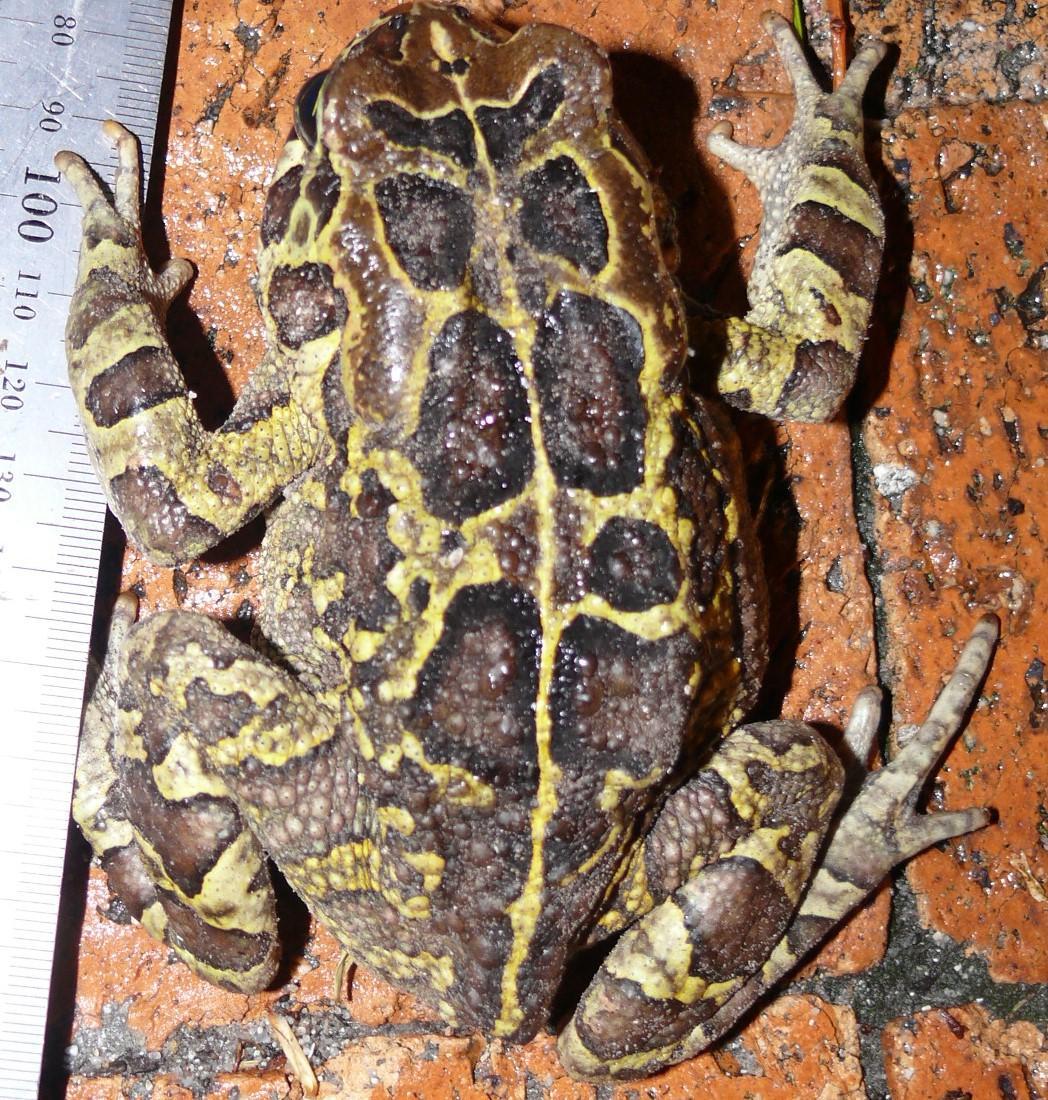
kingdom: Animalia
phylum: Chordata
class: Amphibia
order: Anura
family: Bufonidae
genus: Sclerophrys
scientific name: Sclerophrys pantherina
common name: Panther toad
